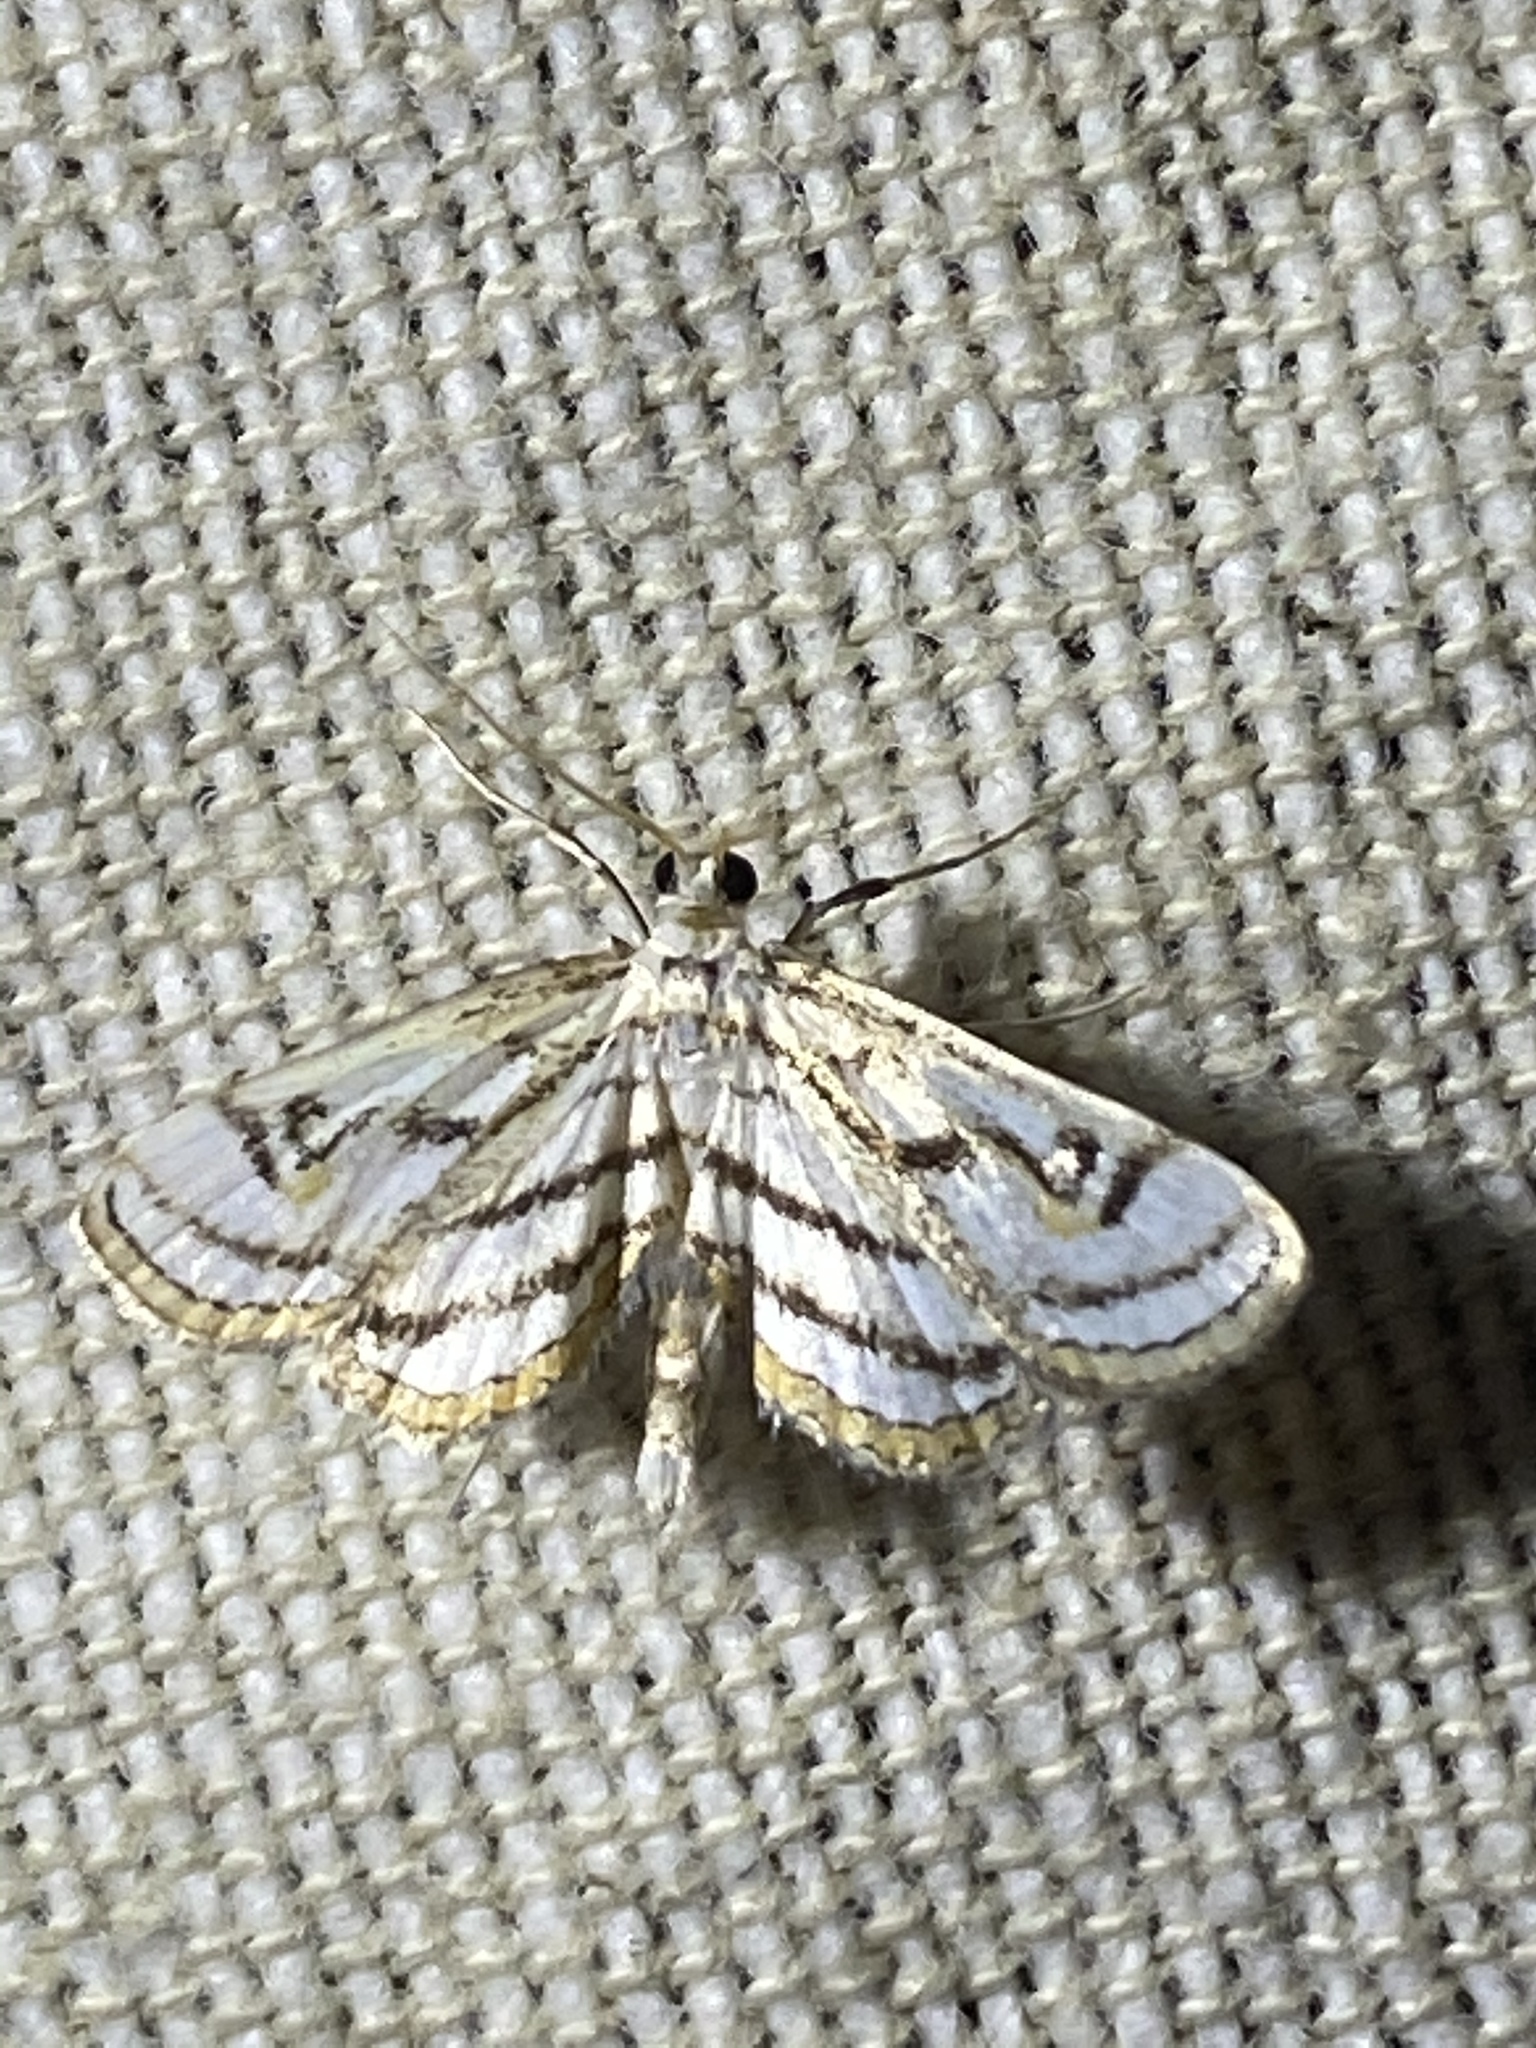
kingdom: Animalia
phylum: Arthropoda
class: Insecta
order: Lepidoptera
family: Crambidae
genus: Parapoynx
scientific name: Parapoynx badiusalis
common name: Chestnut-marked pondweed moth
